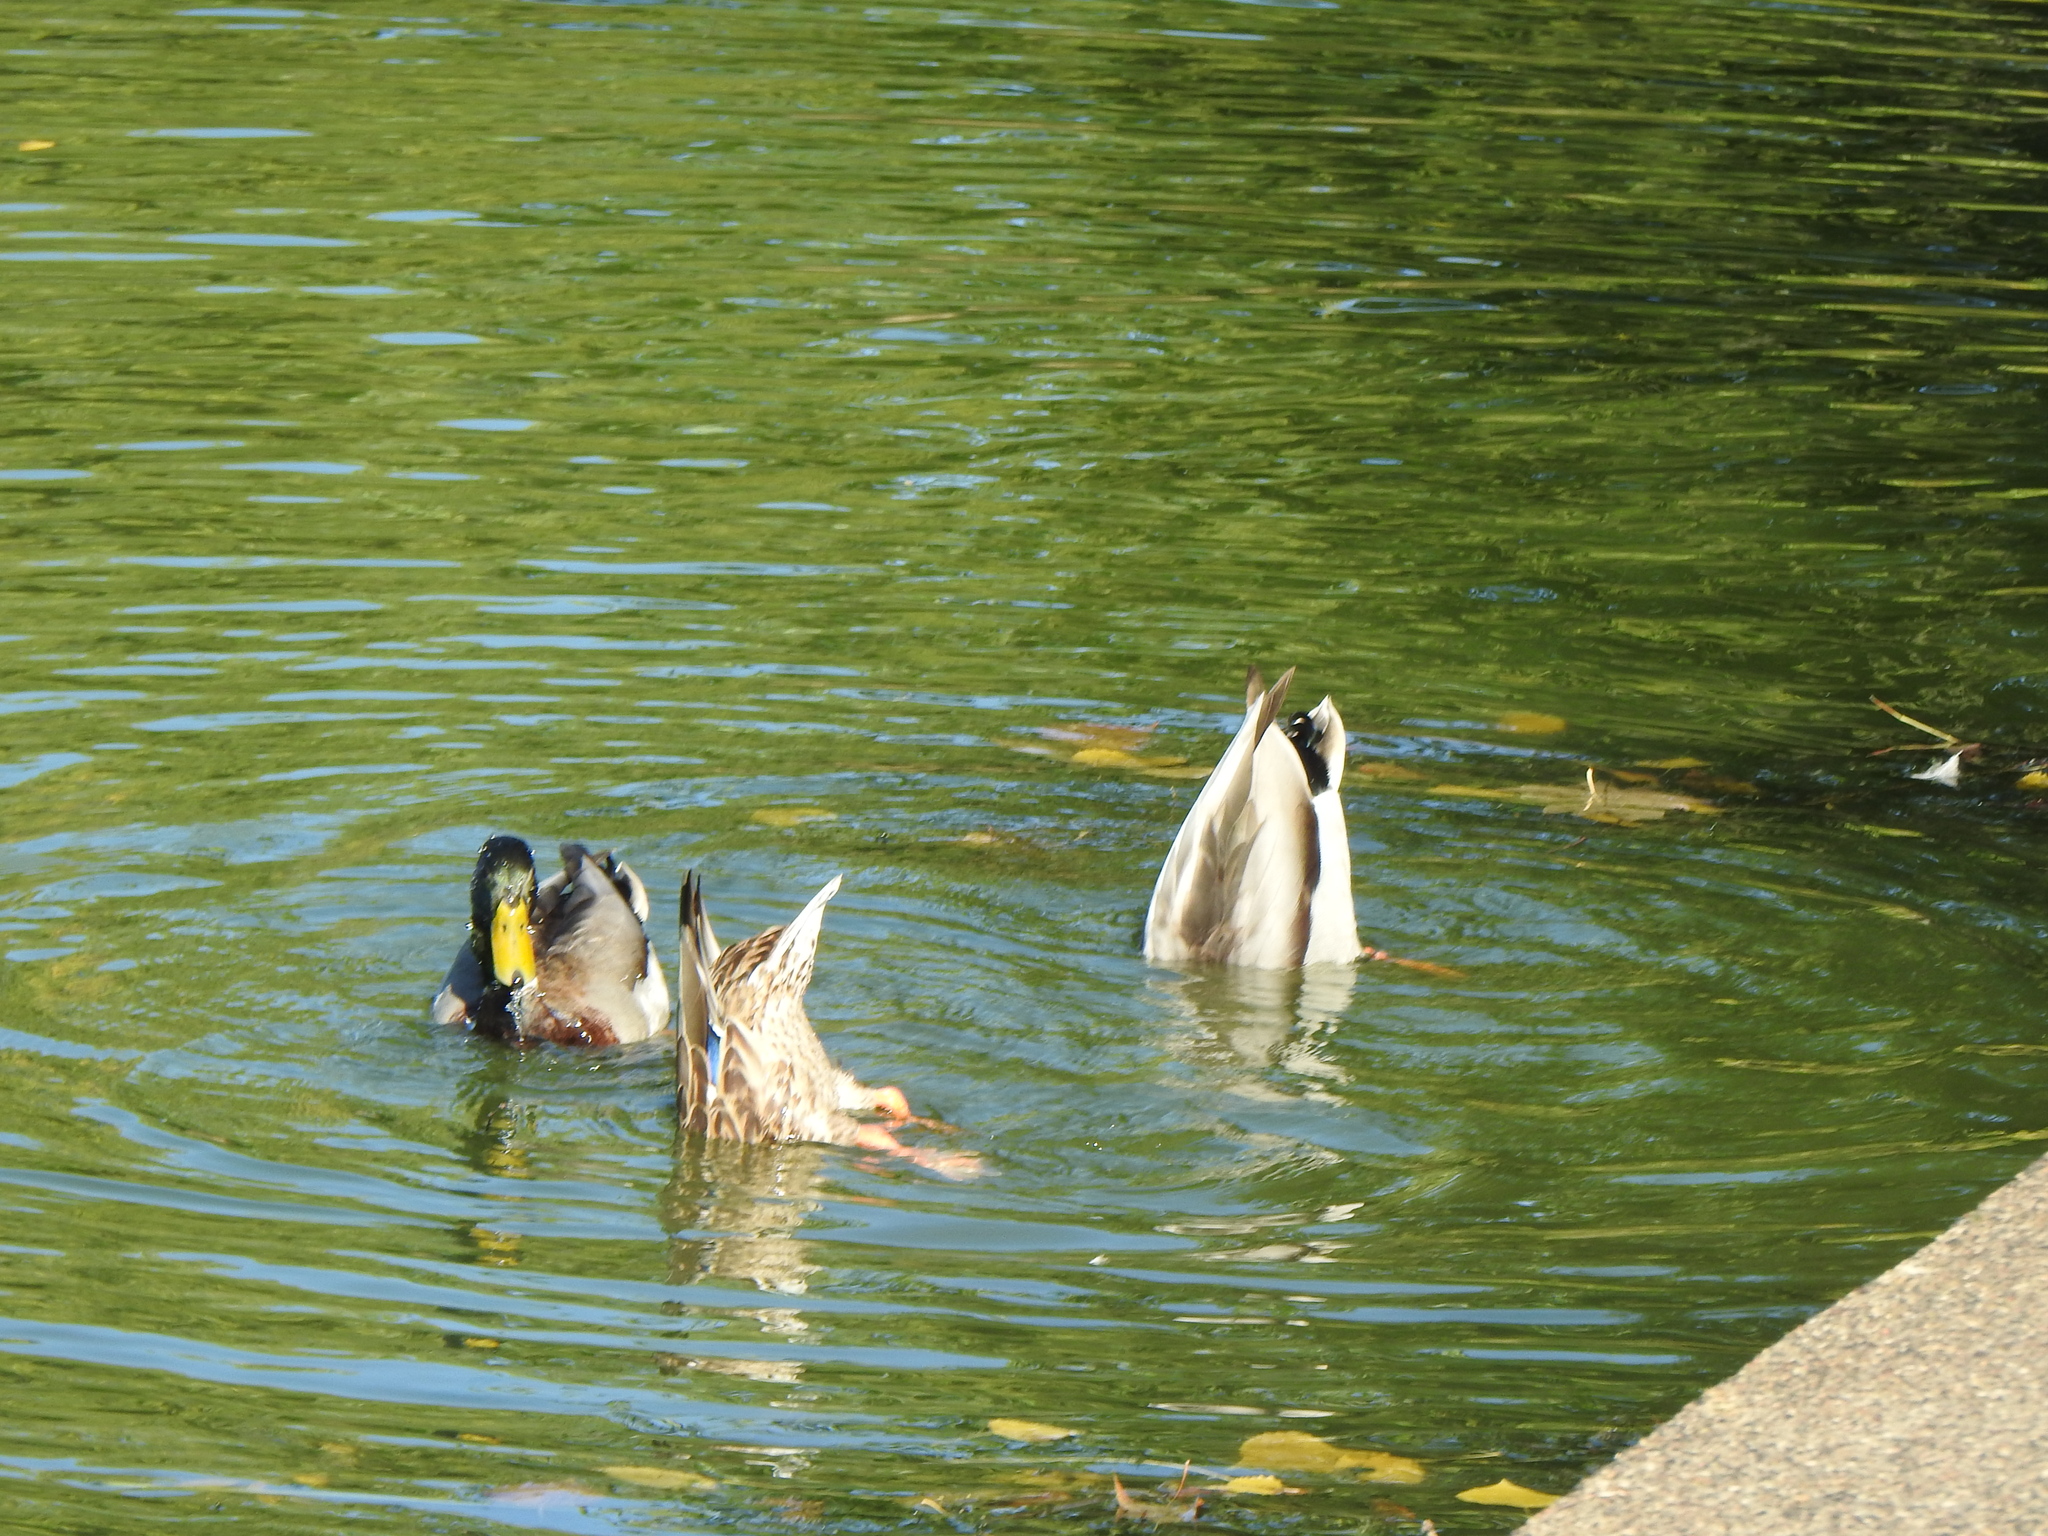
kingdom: Animalia
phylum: Chordata
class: Aves
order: Anseriformes
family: Anatidae
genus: Anas
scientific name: Anas platyrhynchos
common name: Mallard
